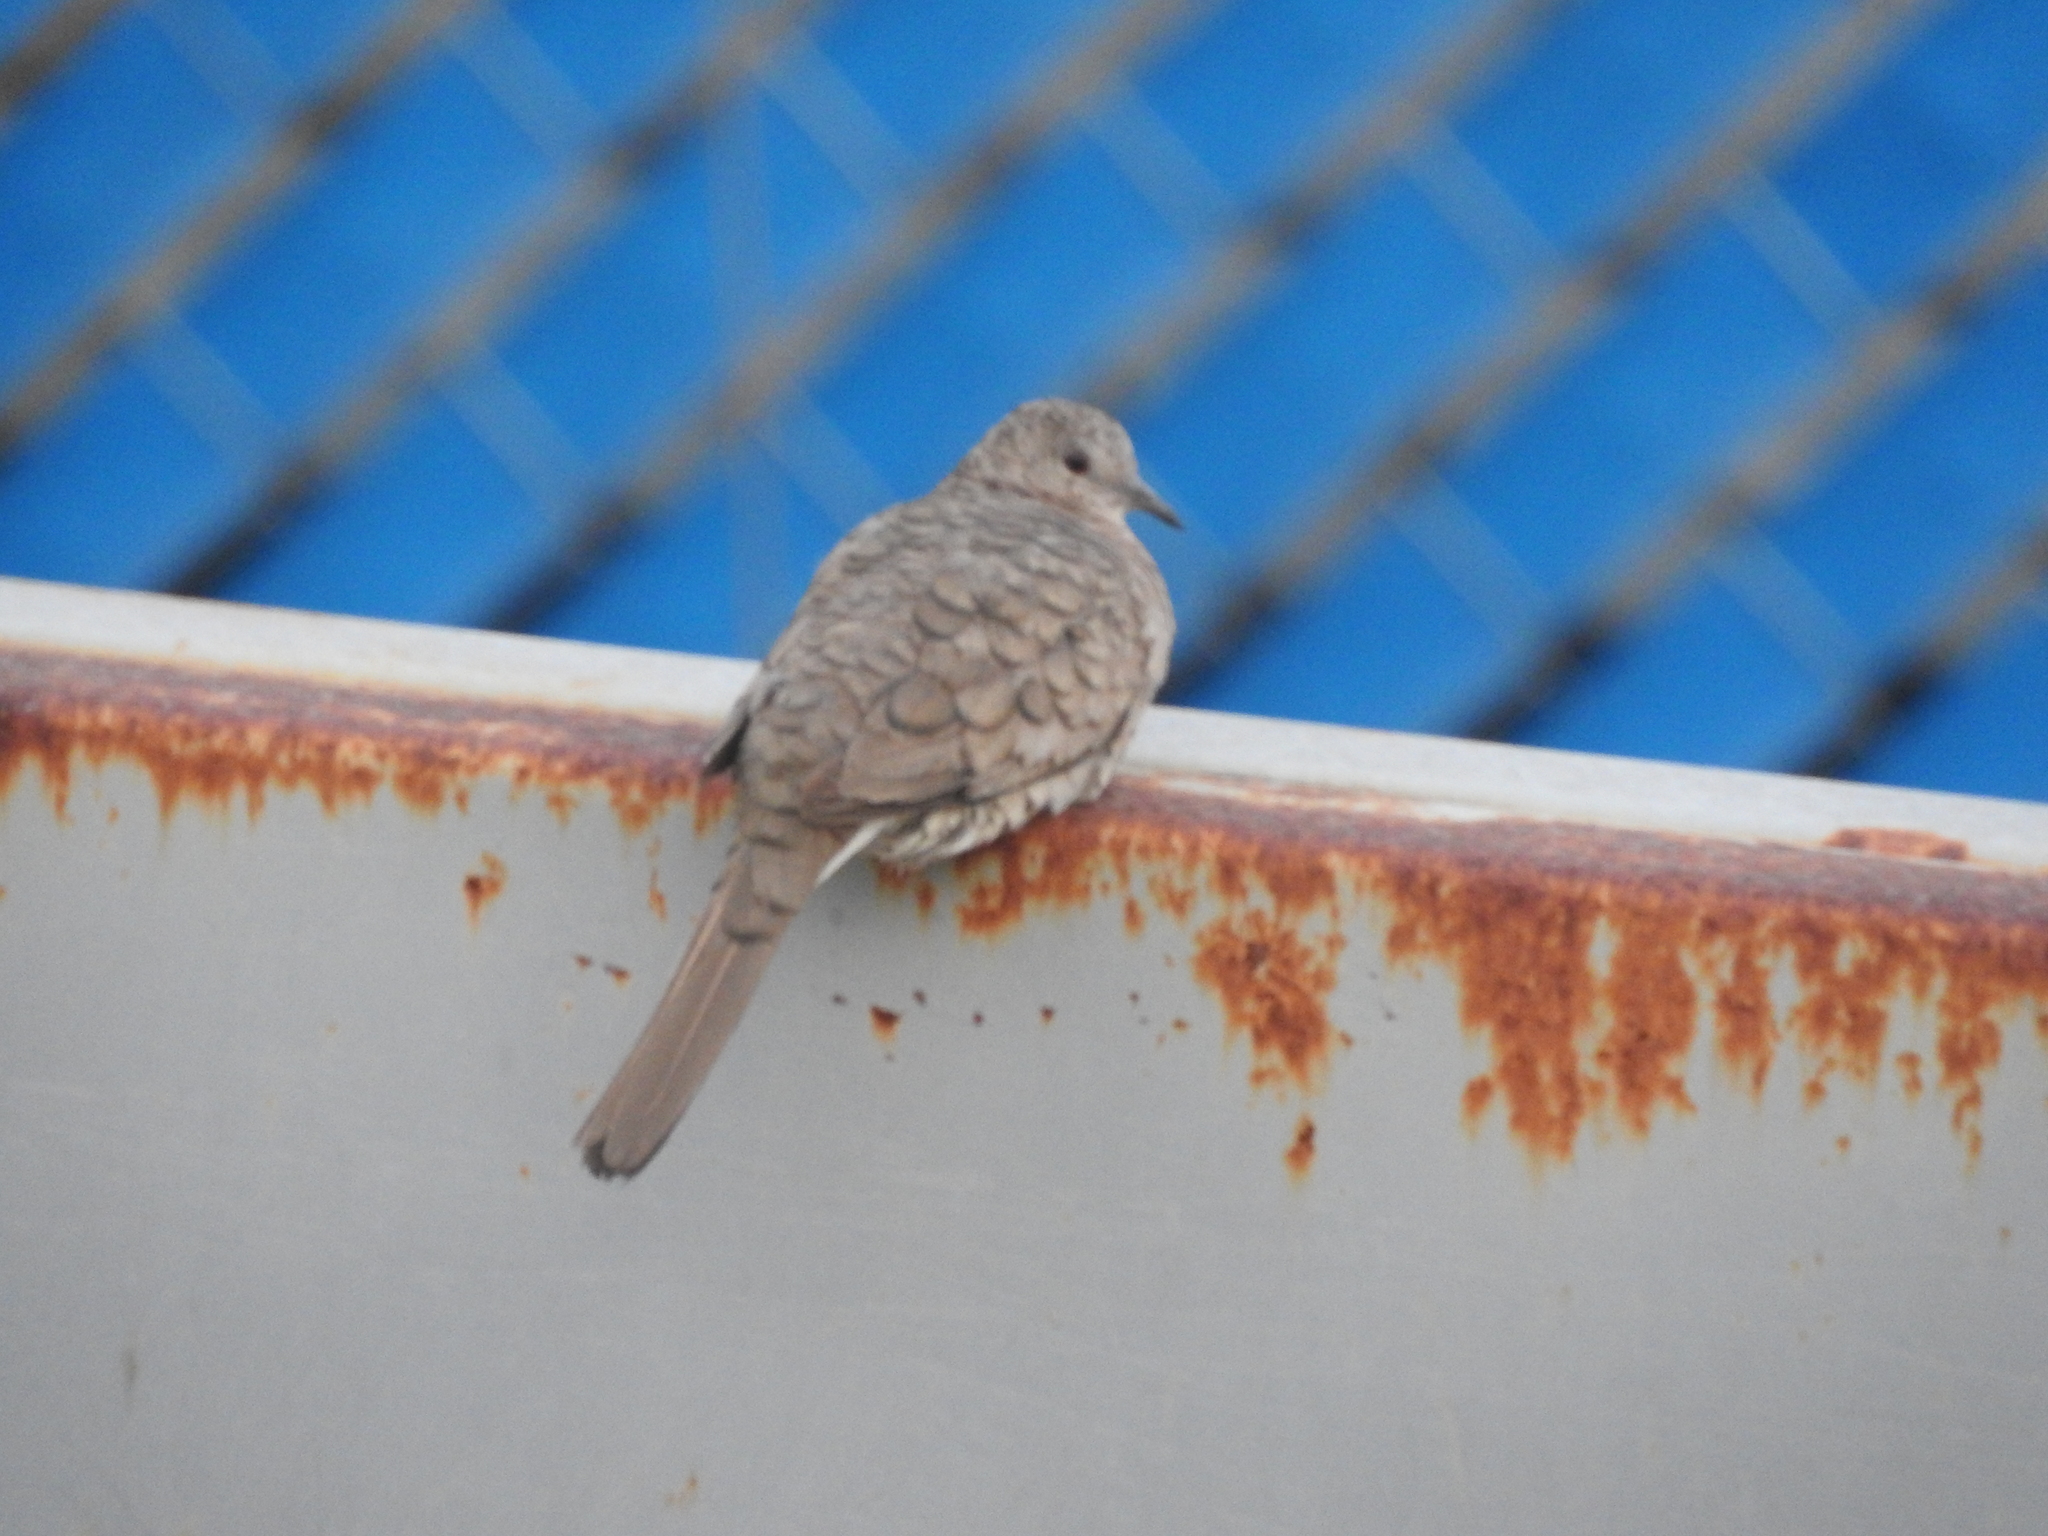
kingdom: Animalia
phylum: Chordata
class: Aves
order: Columbiformes
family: Columbidae
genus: Columbina
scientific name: Columbina inca
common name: Inca dove
